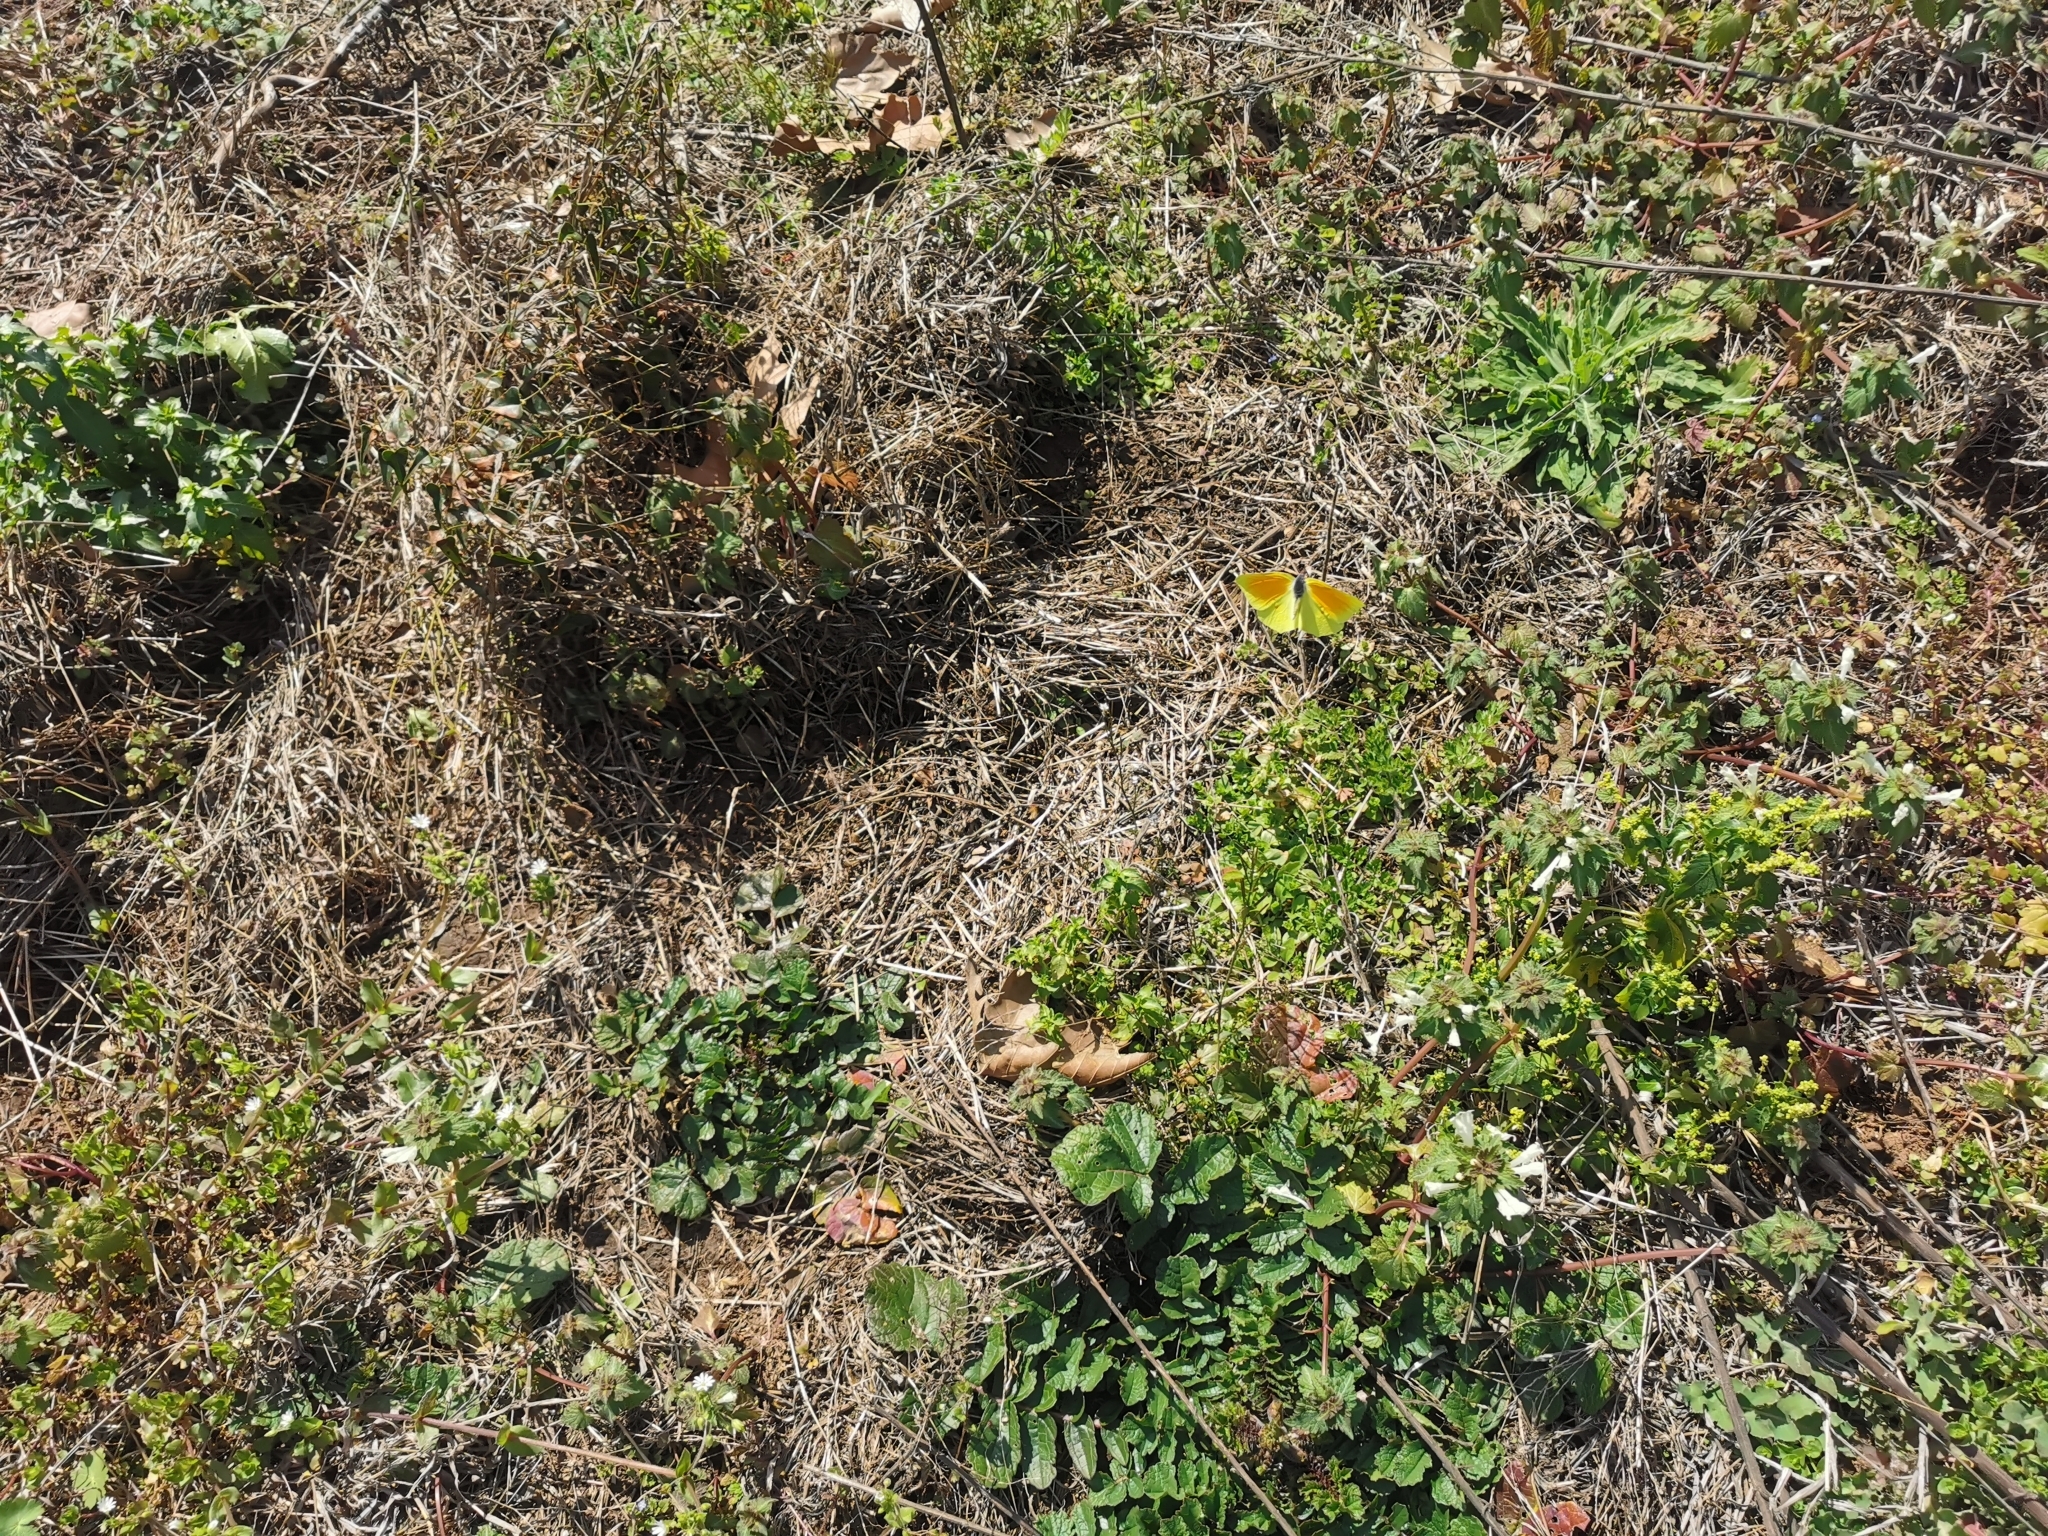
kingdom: Animalia
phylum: Arthropoda
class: Insecta
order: Lepidoptera
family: Pieridae
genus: Gonepteryx
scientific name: Gonepteryx cleopatra
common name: Cleopatra
